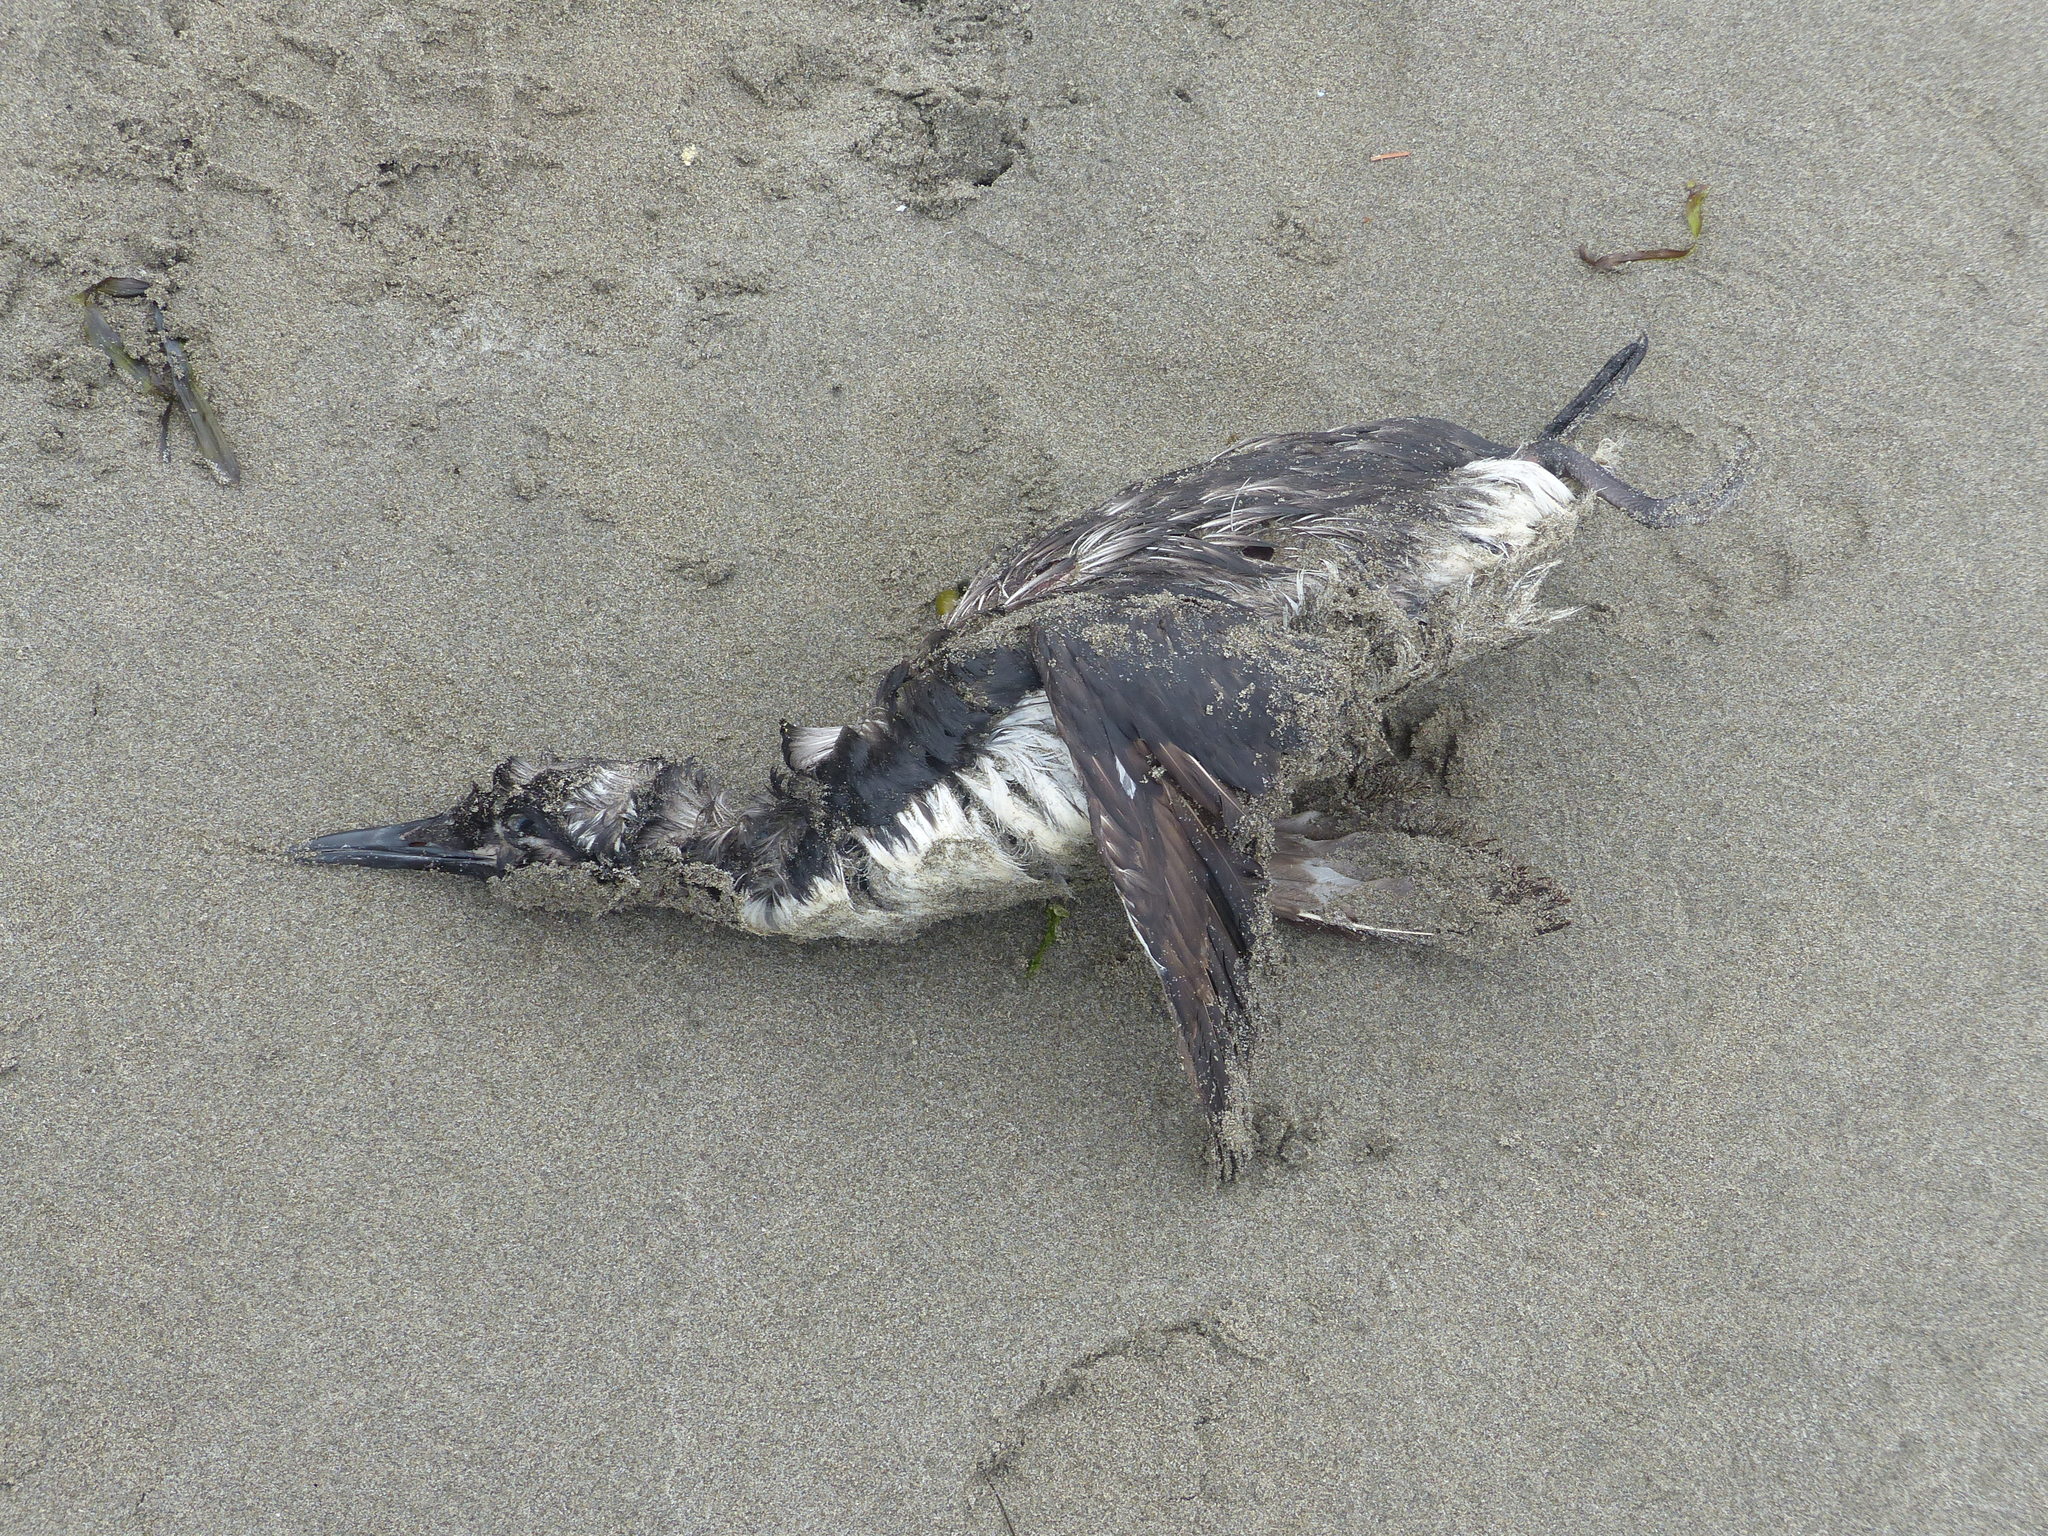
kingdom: Animalia
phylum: Chordata
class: Aves
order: Charadriiformes
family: Alcidae
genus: Uria
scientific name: Uria aalge
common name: Common murre
